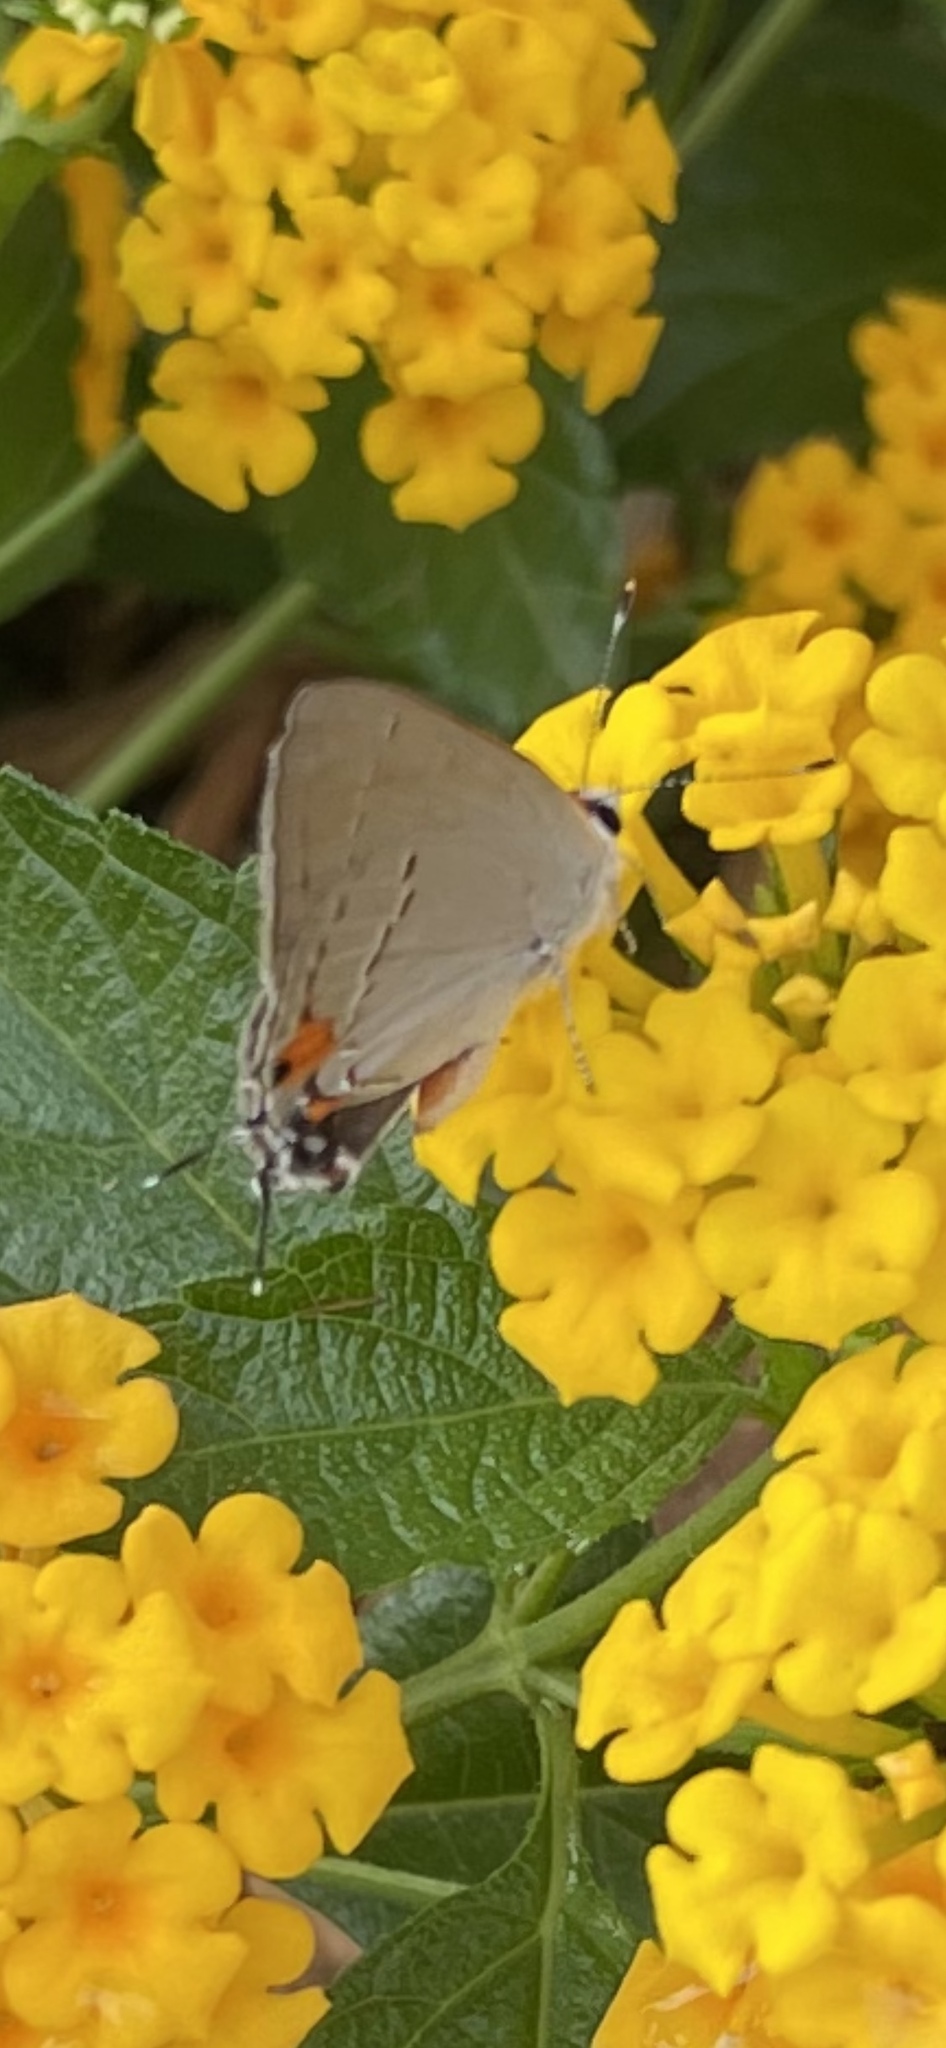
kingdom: Animalia
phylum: Arthropoda
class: Insecta
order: Lepidoptera
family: Lycaenidae
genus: Strymon
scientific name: Strymon melinus
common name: Gray hairstreak
